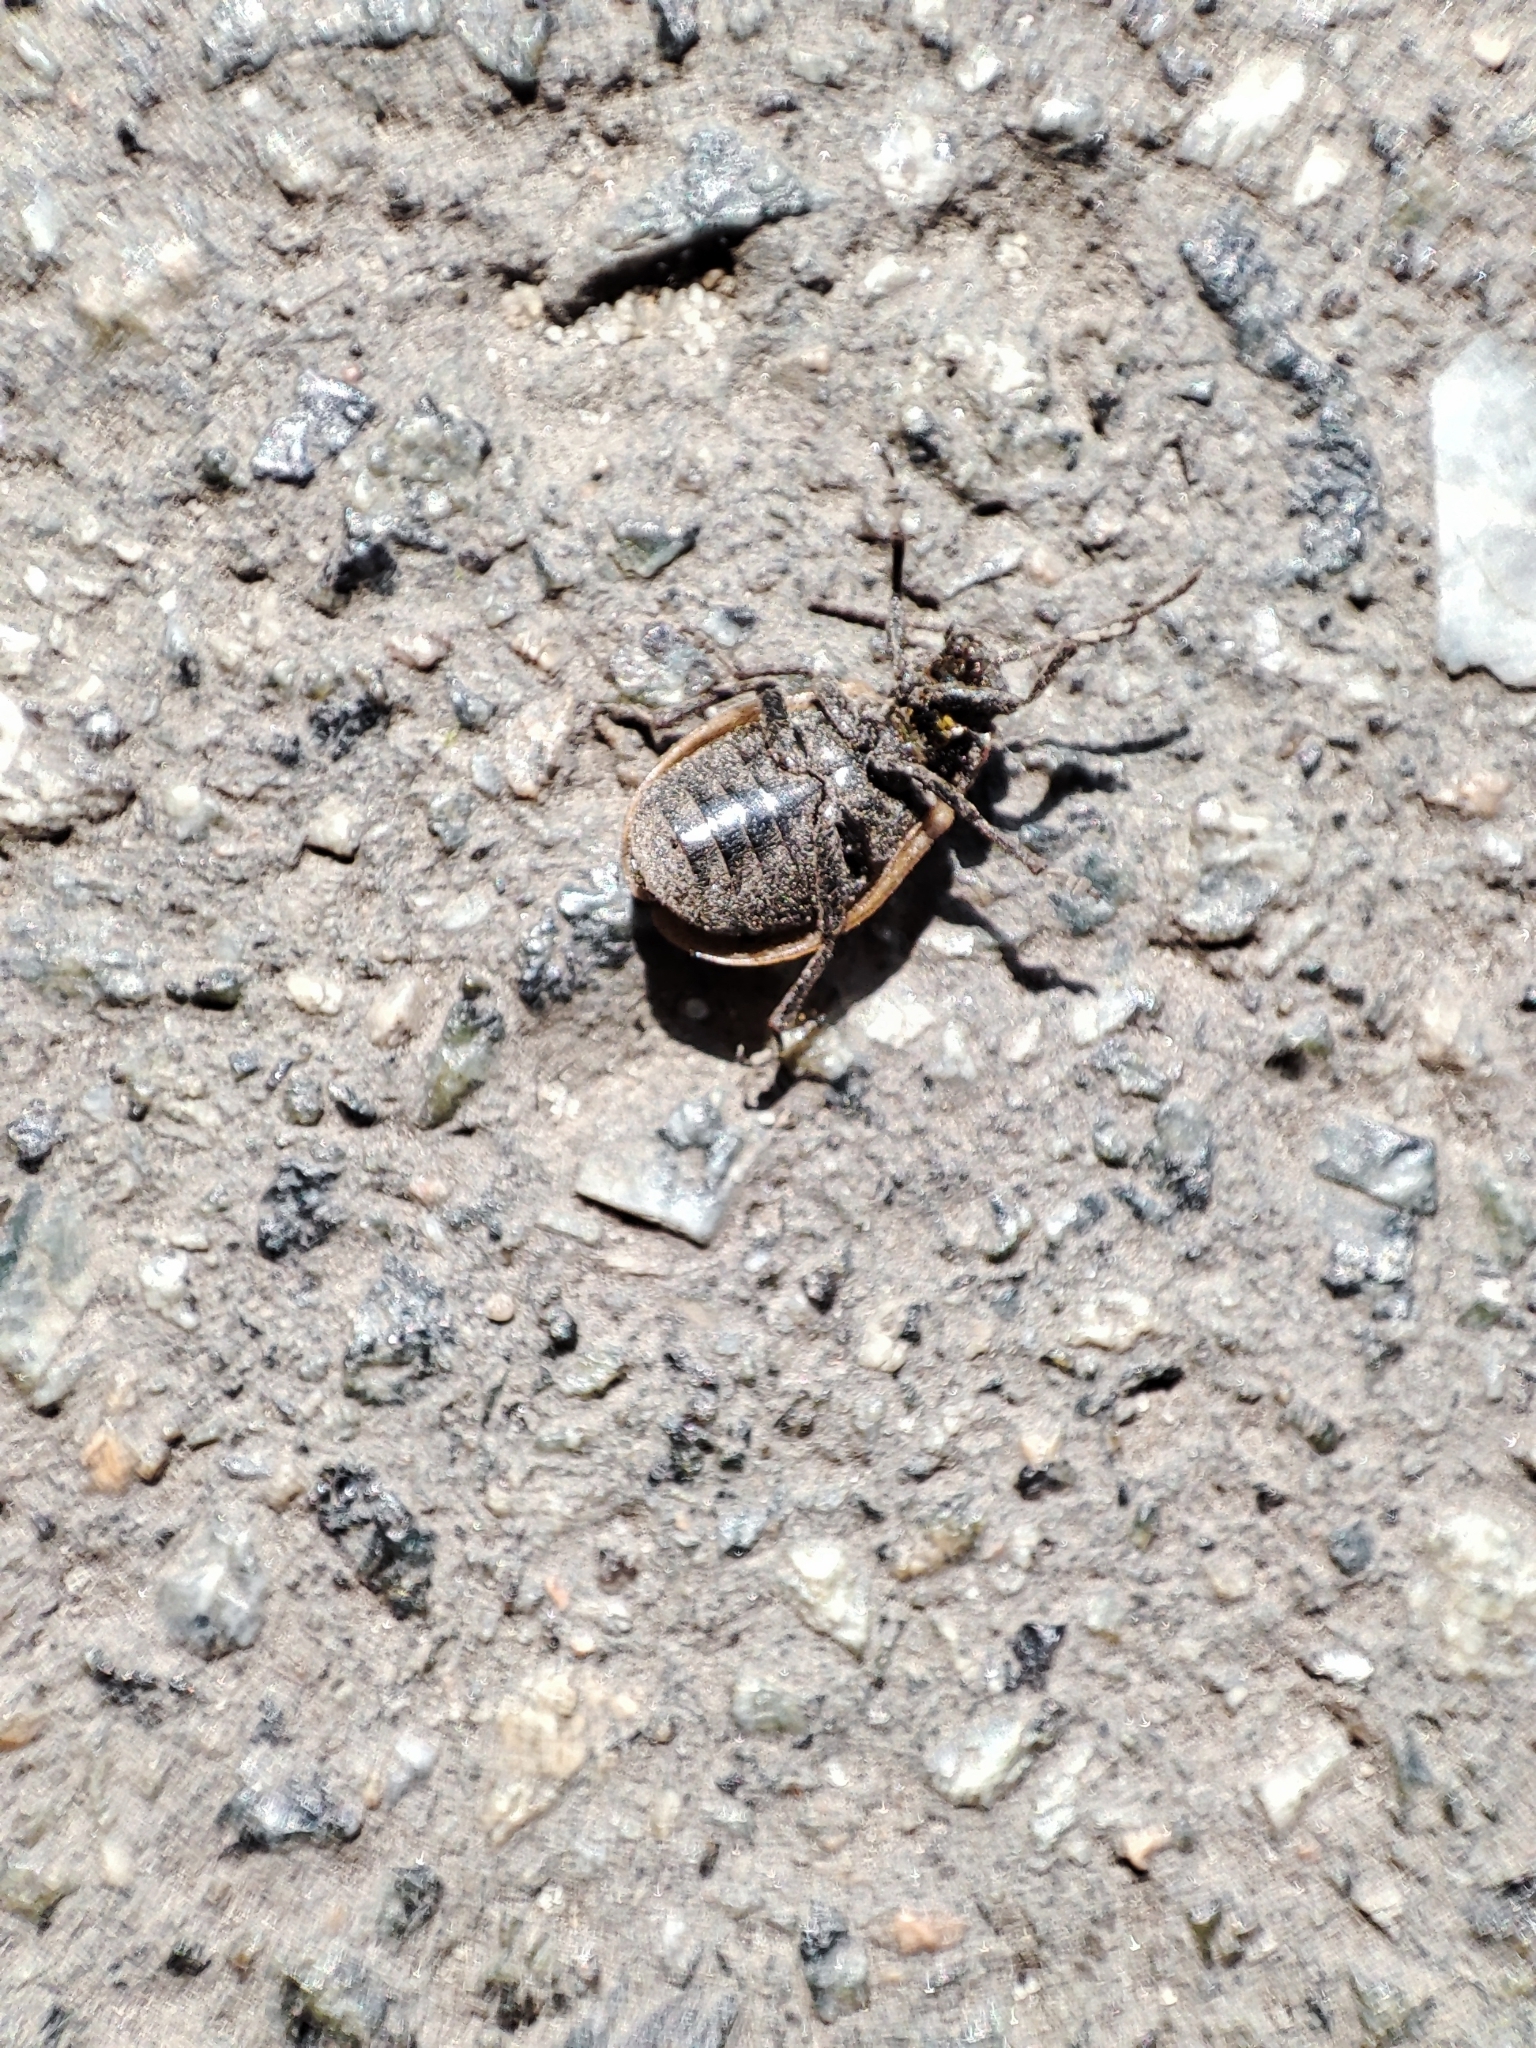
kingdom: Animalia
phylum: Arthropoda
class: Insecta
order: Coleoptera
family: Chrysomelidae
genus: Galeruca
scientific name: Galeruca pomonae
